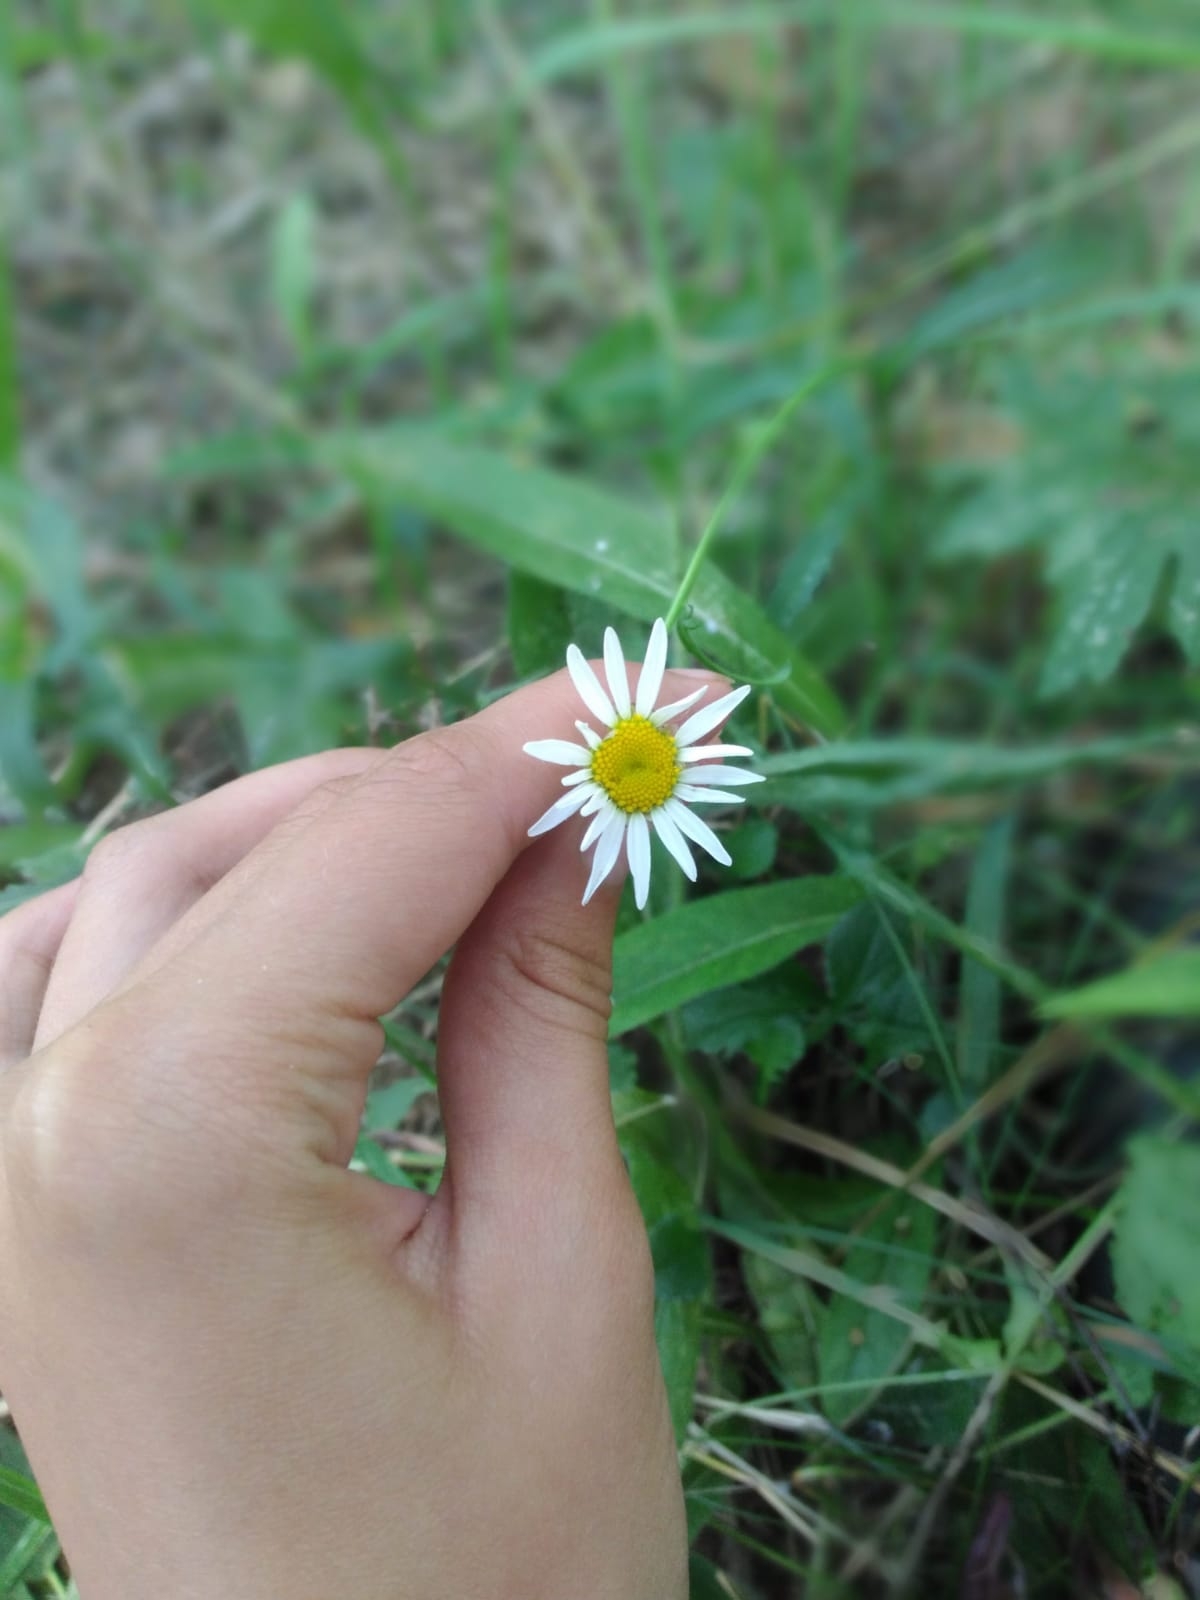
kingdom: Plantae
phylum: Tracheophyta
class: Magnoliopsida
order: Asterales
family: Asteraceae
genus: Tripleurospermum
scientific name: Tripleurospermum inodorum
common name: Scentless mayweed
